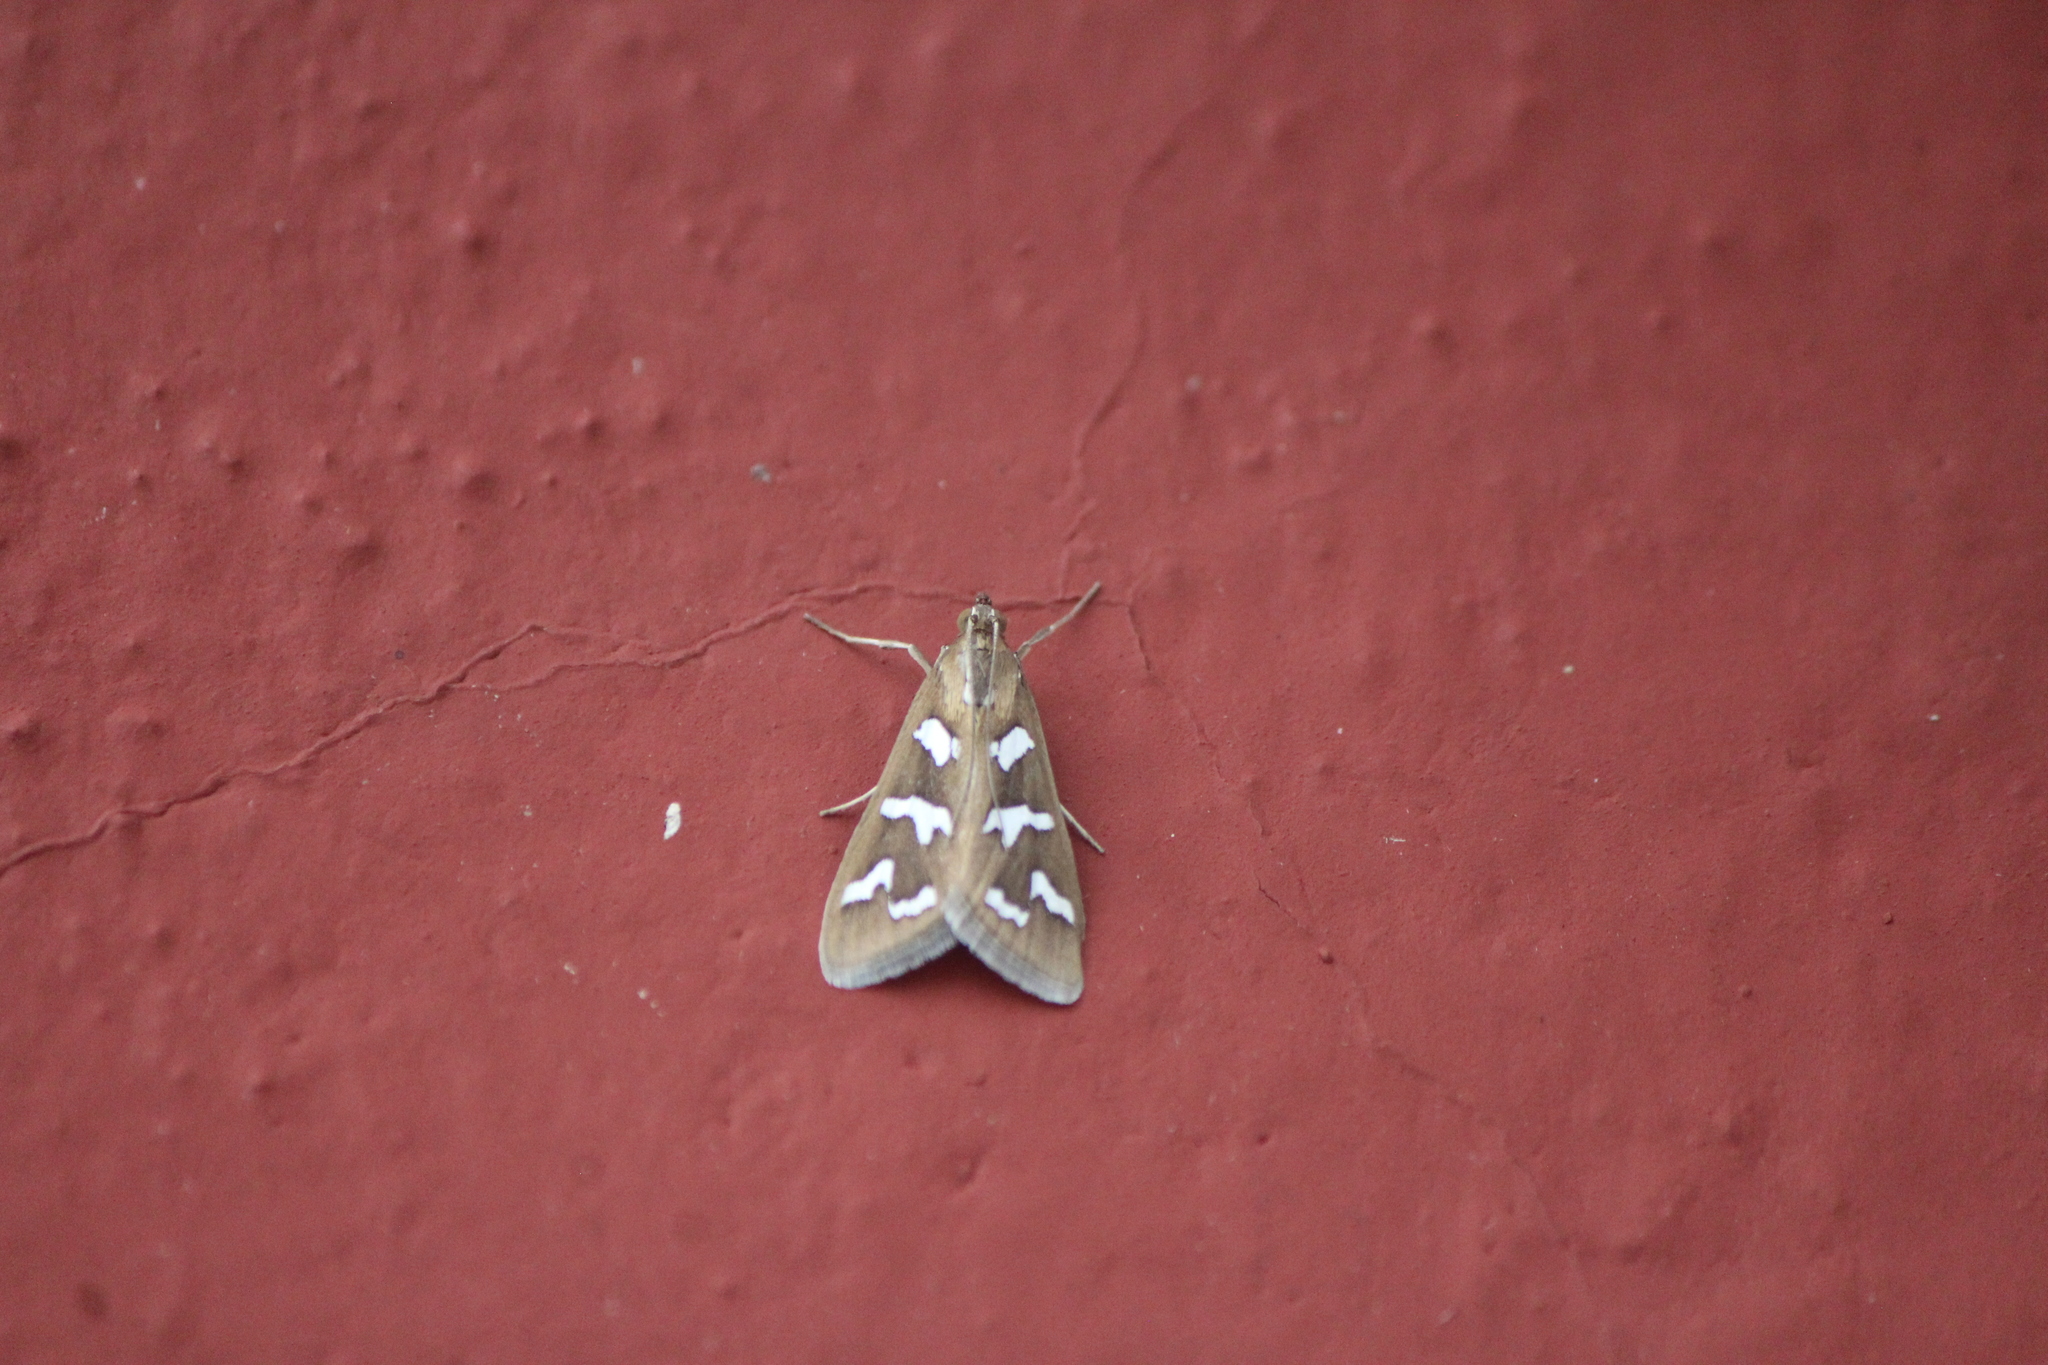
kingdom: Animalia
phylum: Arthropoda
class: Insecta
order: Lepidoptera
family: Crambidae
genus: Diastictis
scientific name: Diastictis fracturalis
